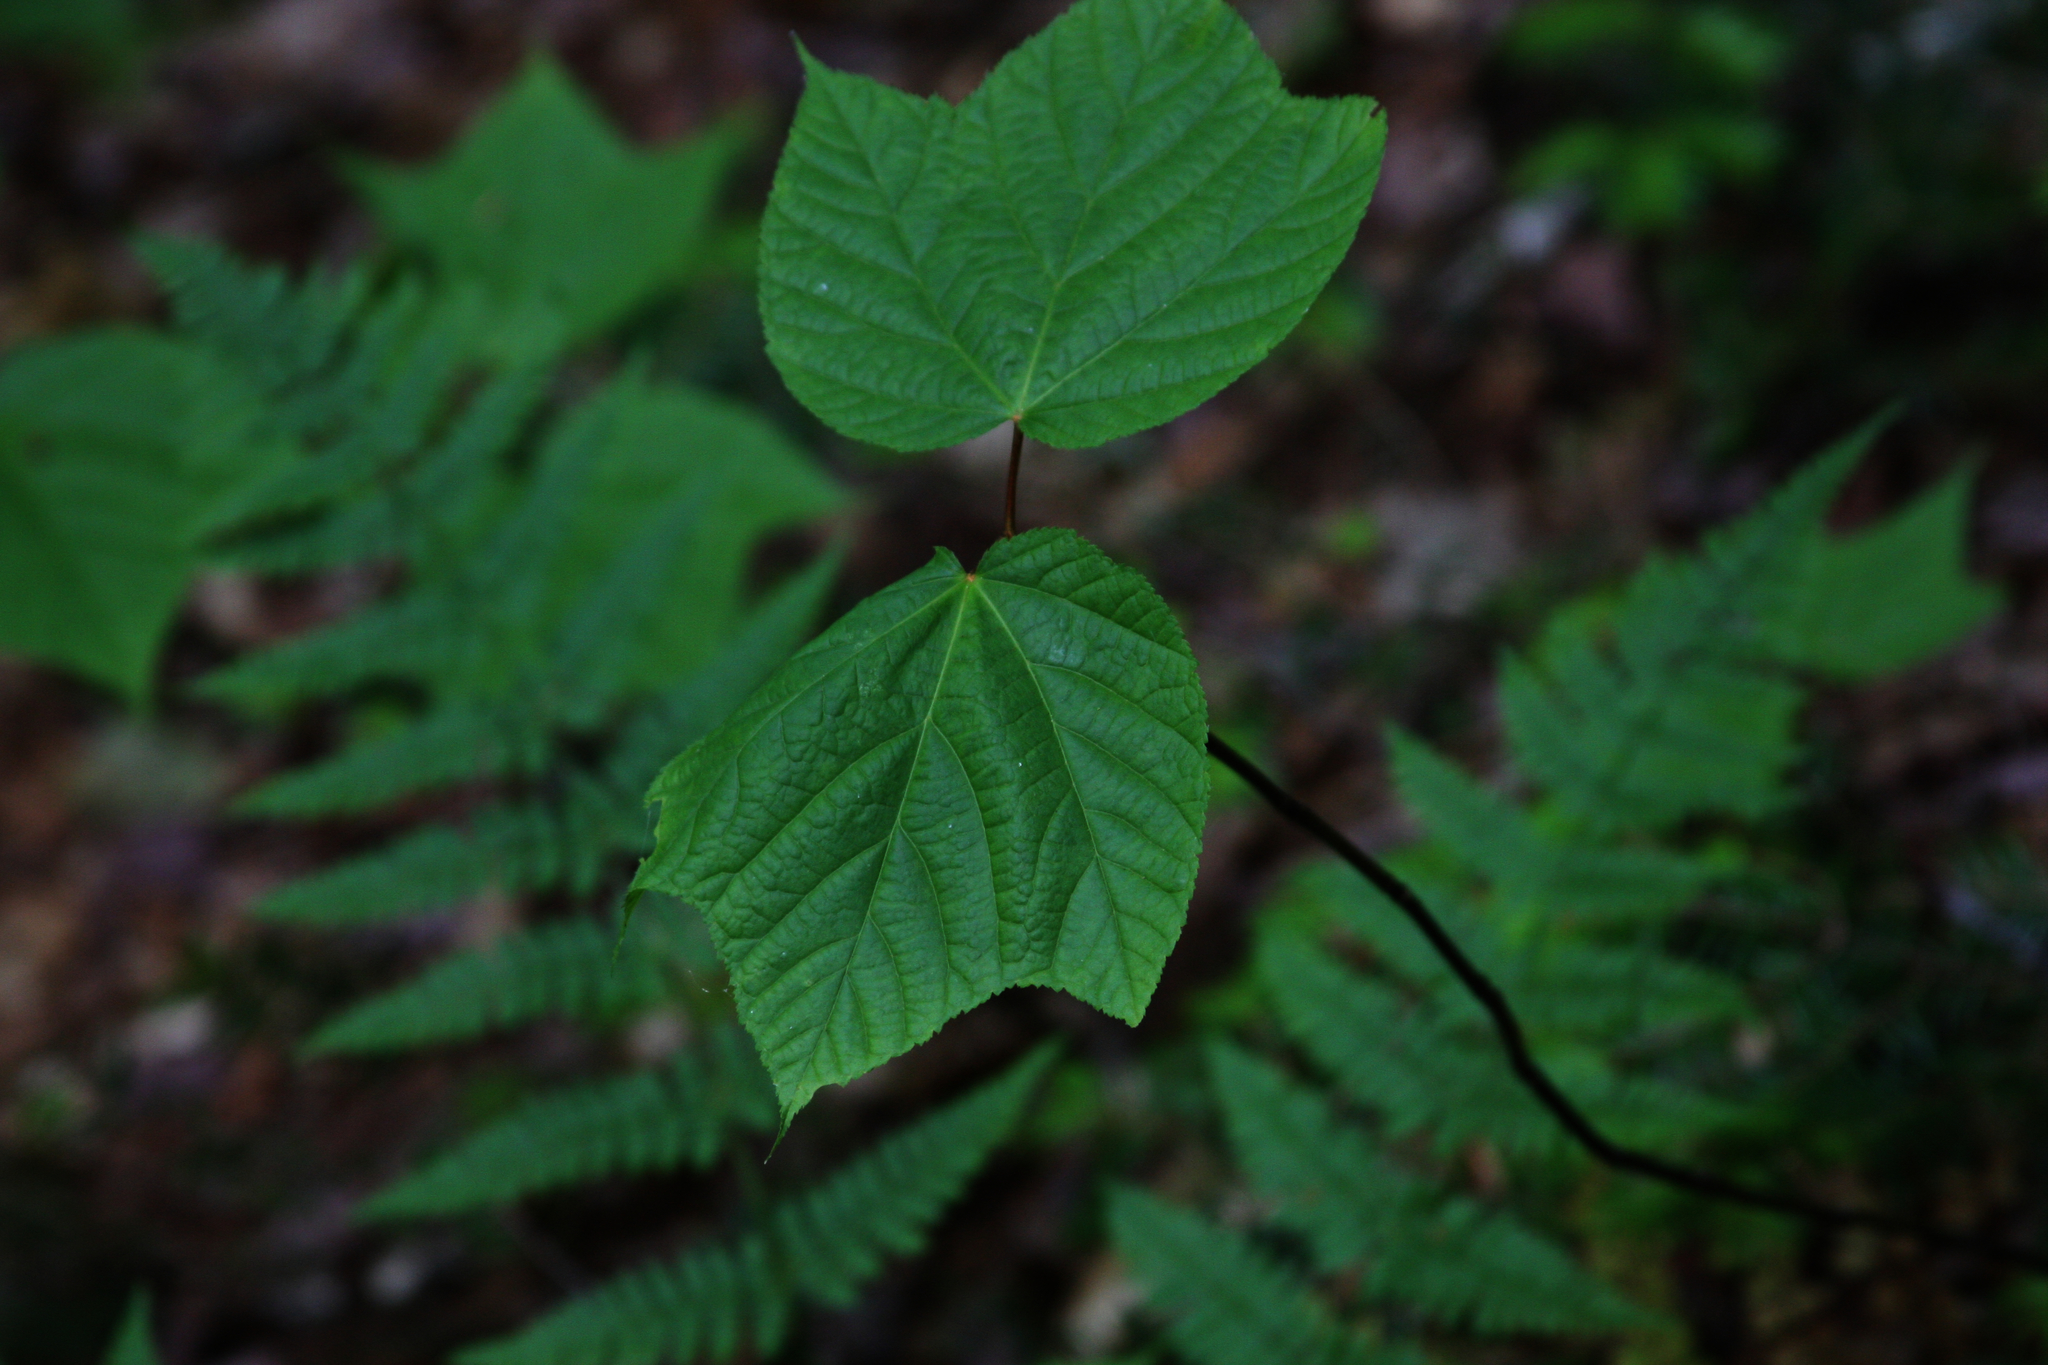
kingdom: Plantae
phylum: Tracheophyta
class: Magnoliopsida
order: Sapindales
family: Sapindaceae
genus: Acer
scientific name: Acer pensylvanicum
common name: Moosewood
